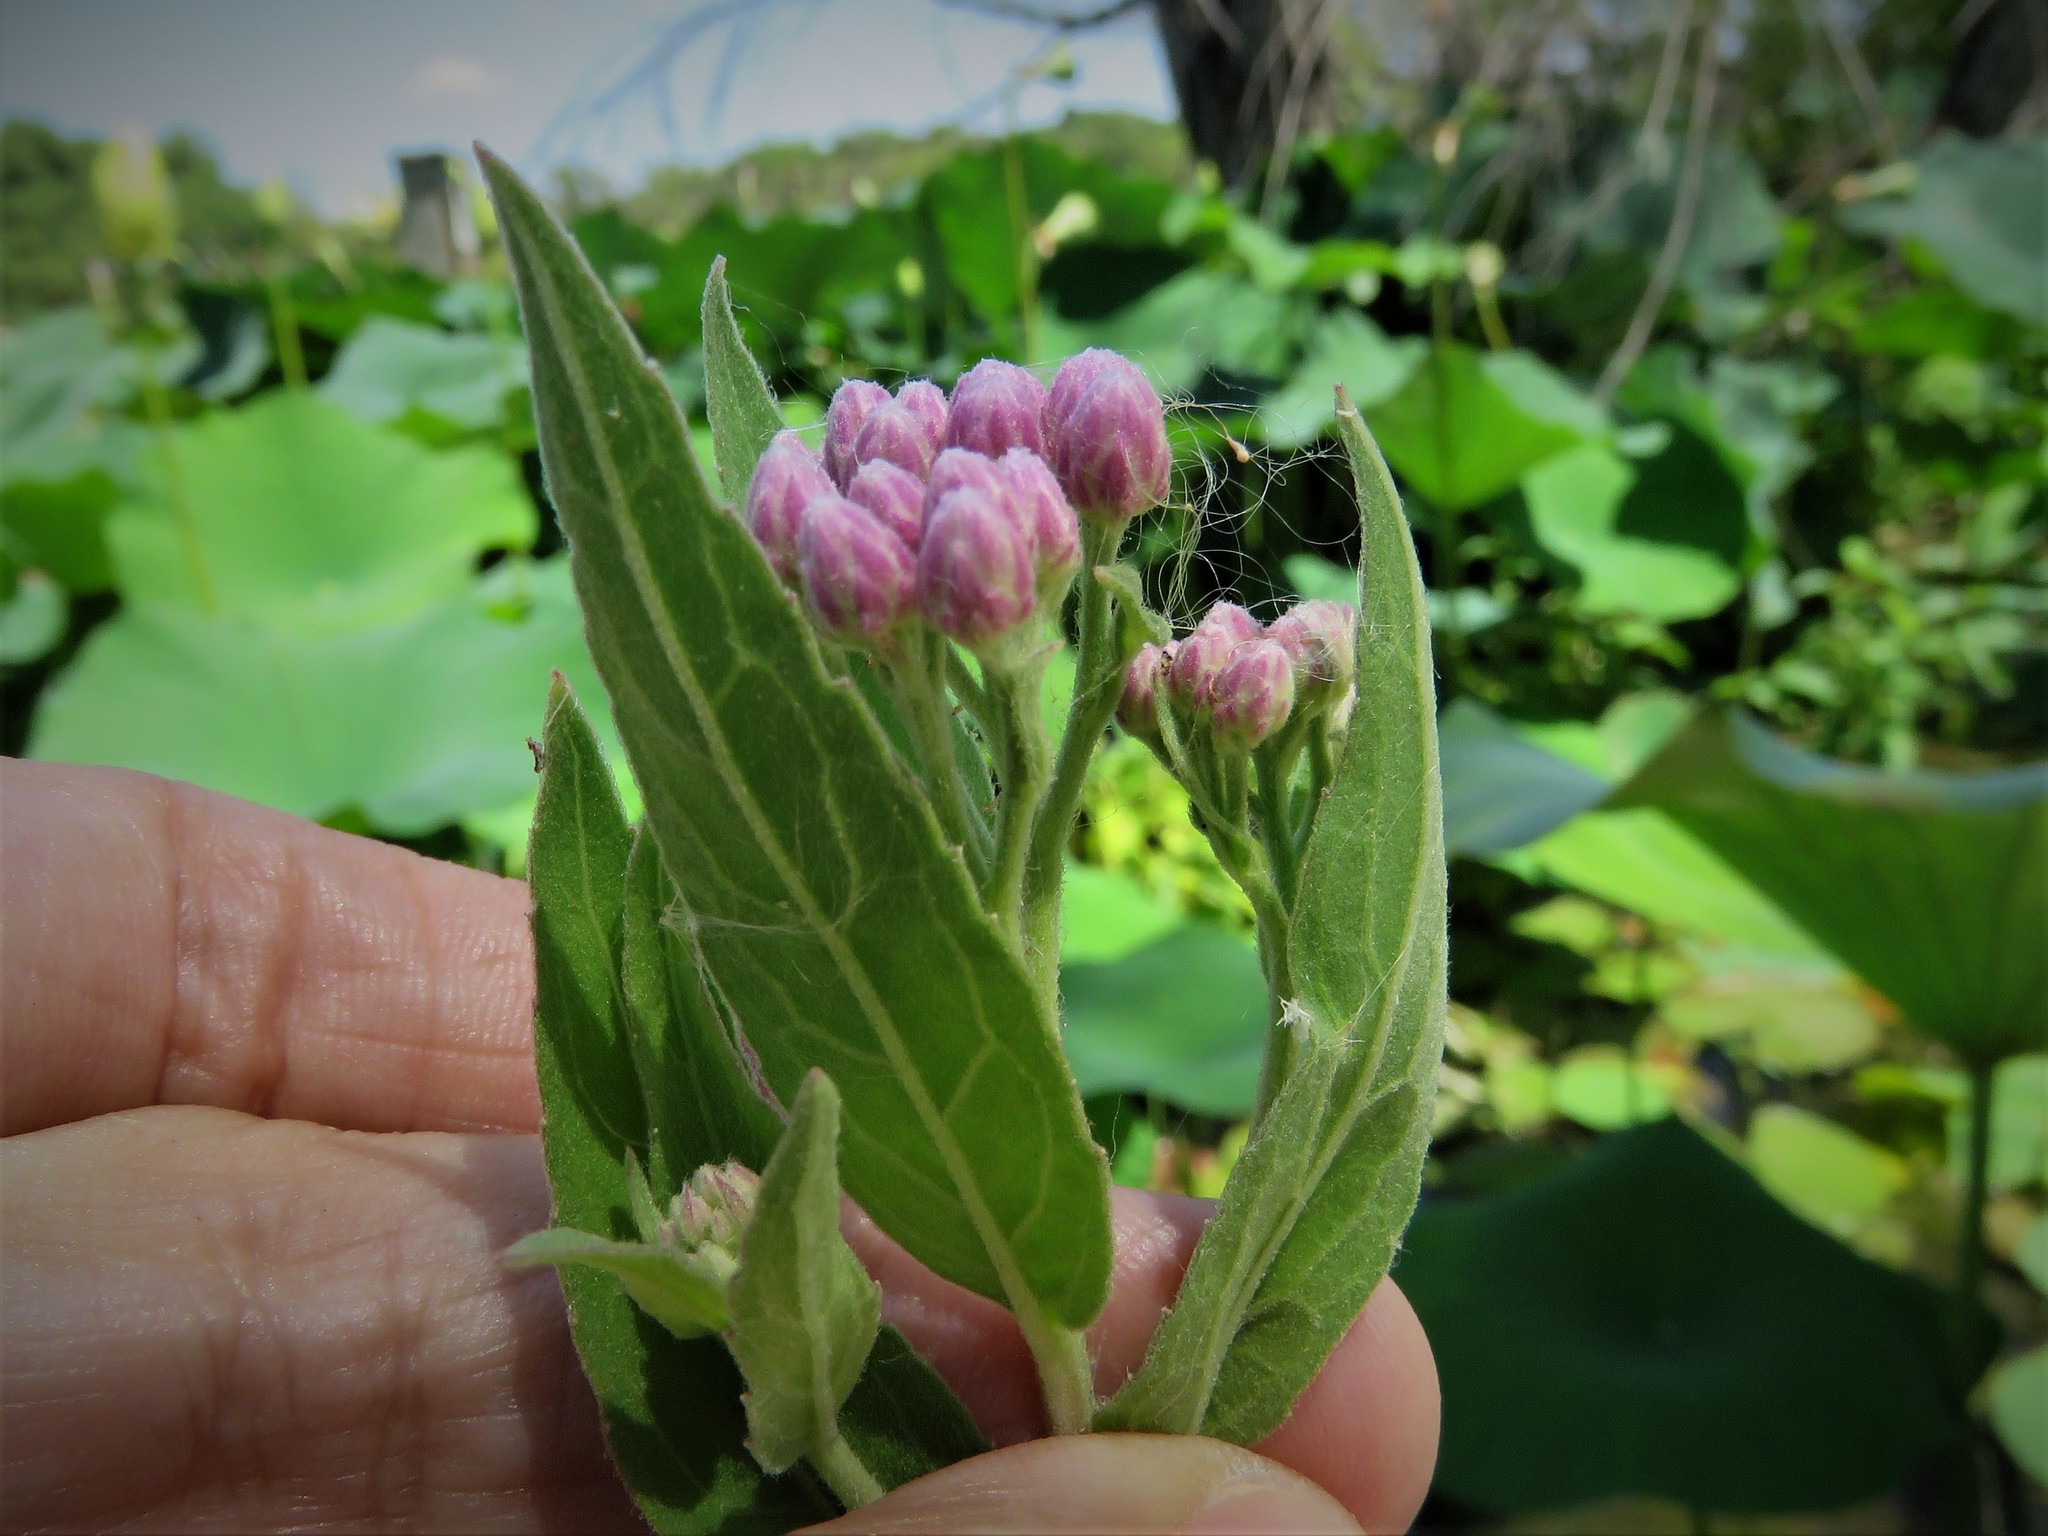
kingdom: Plantae
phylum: Tracheophyta
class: Magnoliopsida
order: Asterales
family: Asteraceae
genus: Pluchea
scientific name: Pluchea odorata
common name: Saltmarsh fleabane
